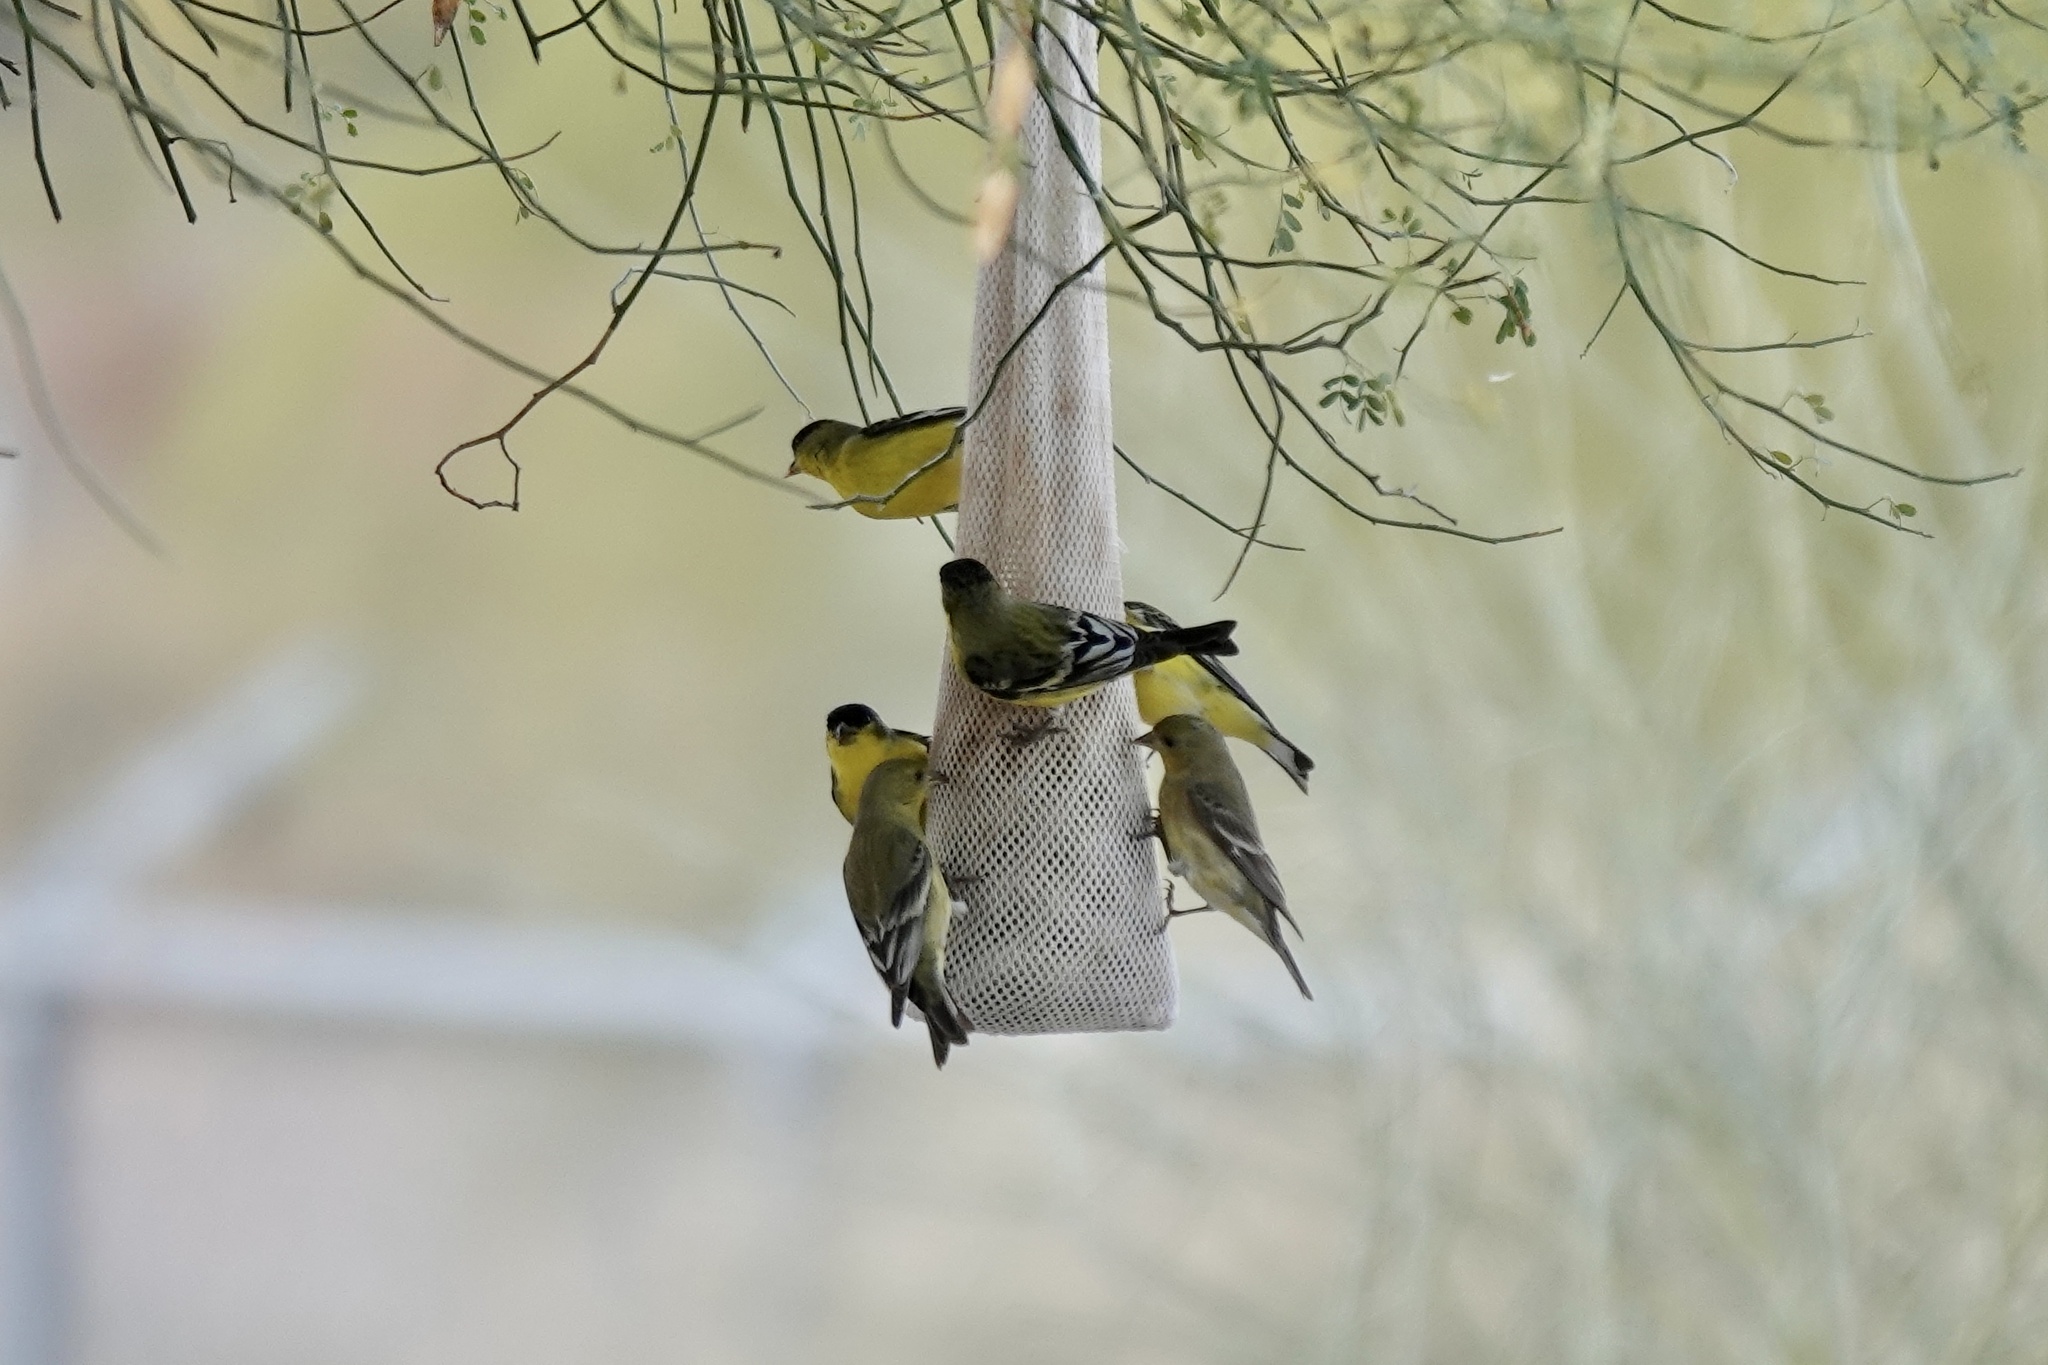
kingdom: Animalia
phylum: Chordata
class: Aves
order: Passeriformes
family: Fringillidae
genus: Spinus
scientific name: Spinus psaltria
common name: Lesser goldfinch
